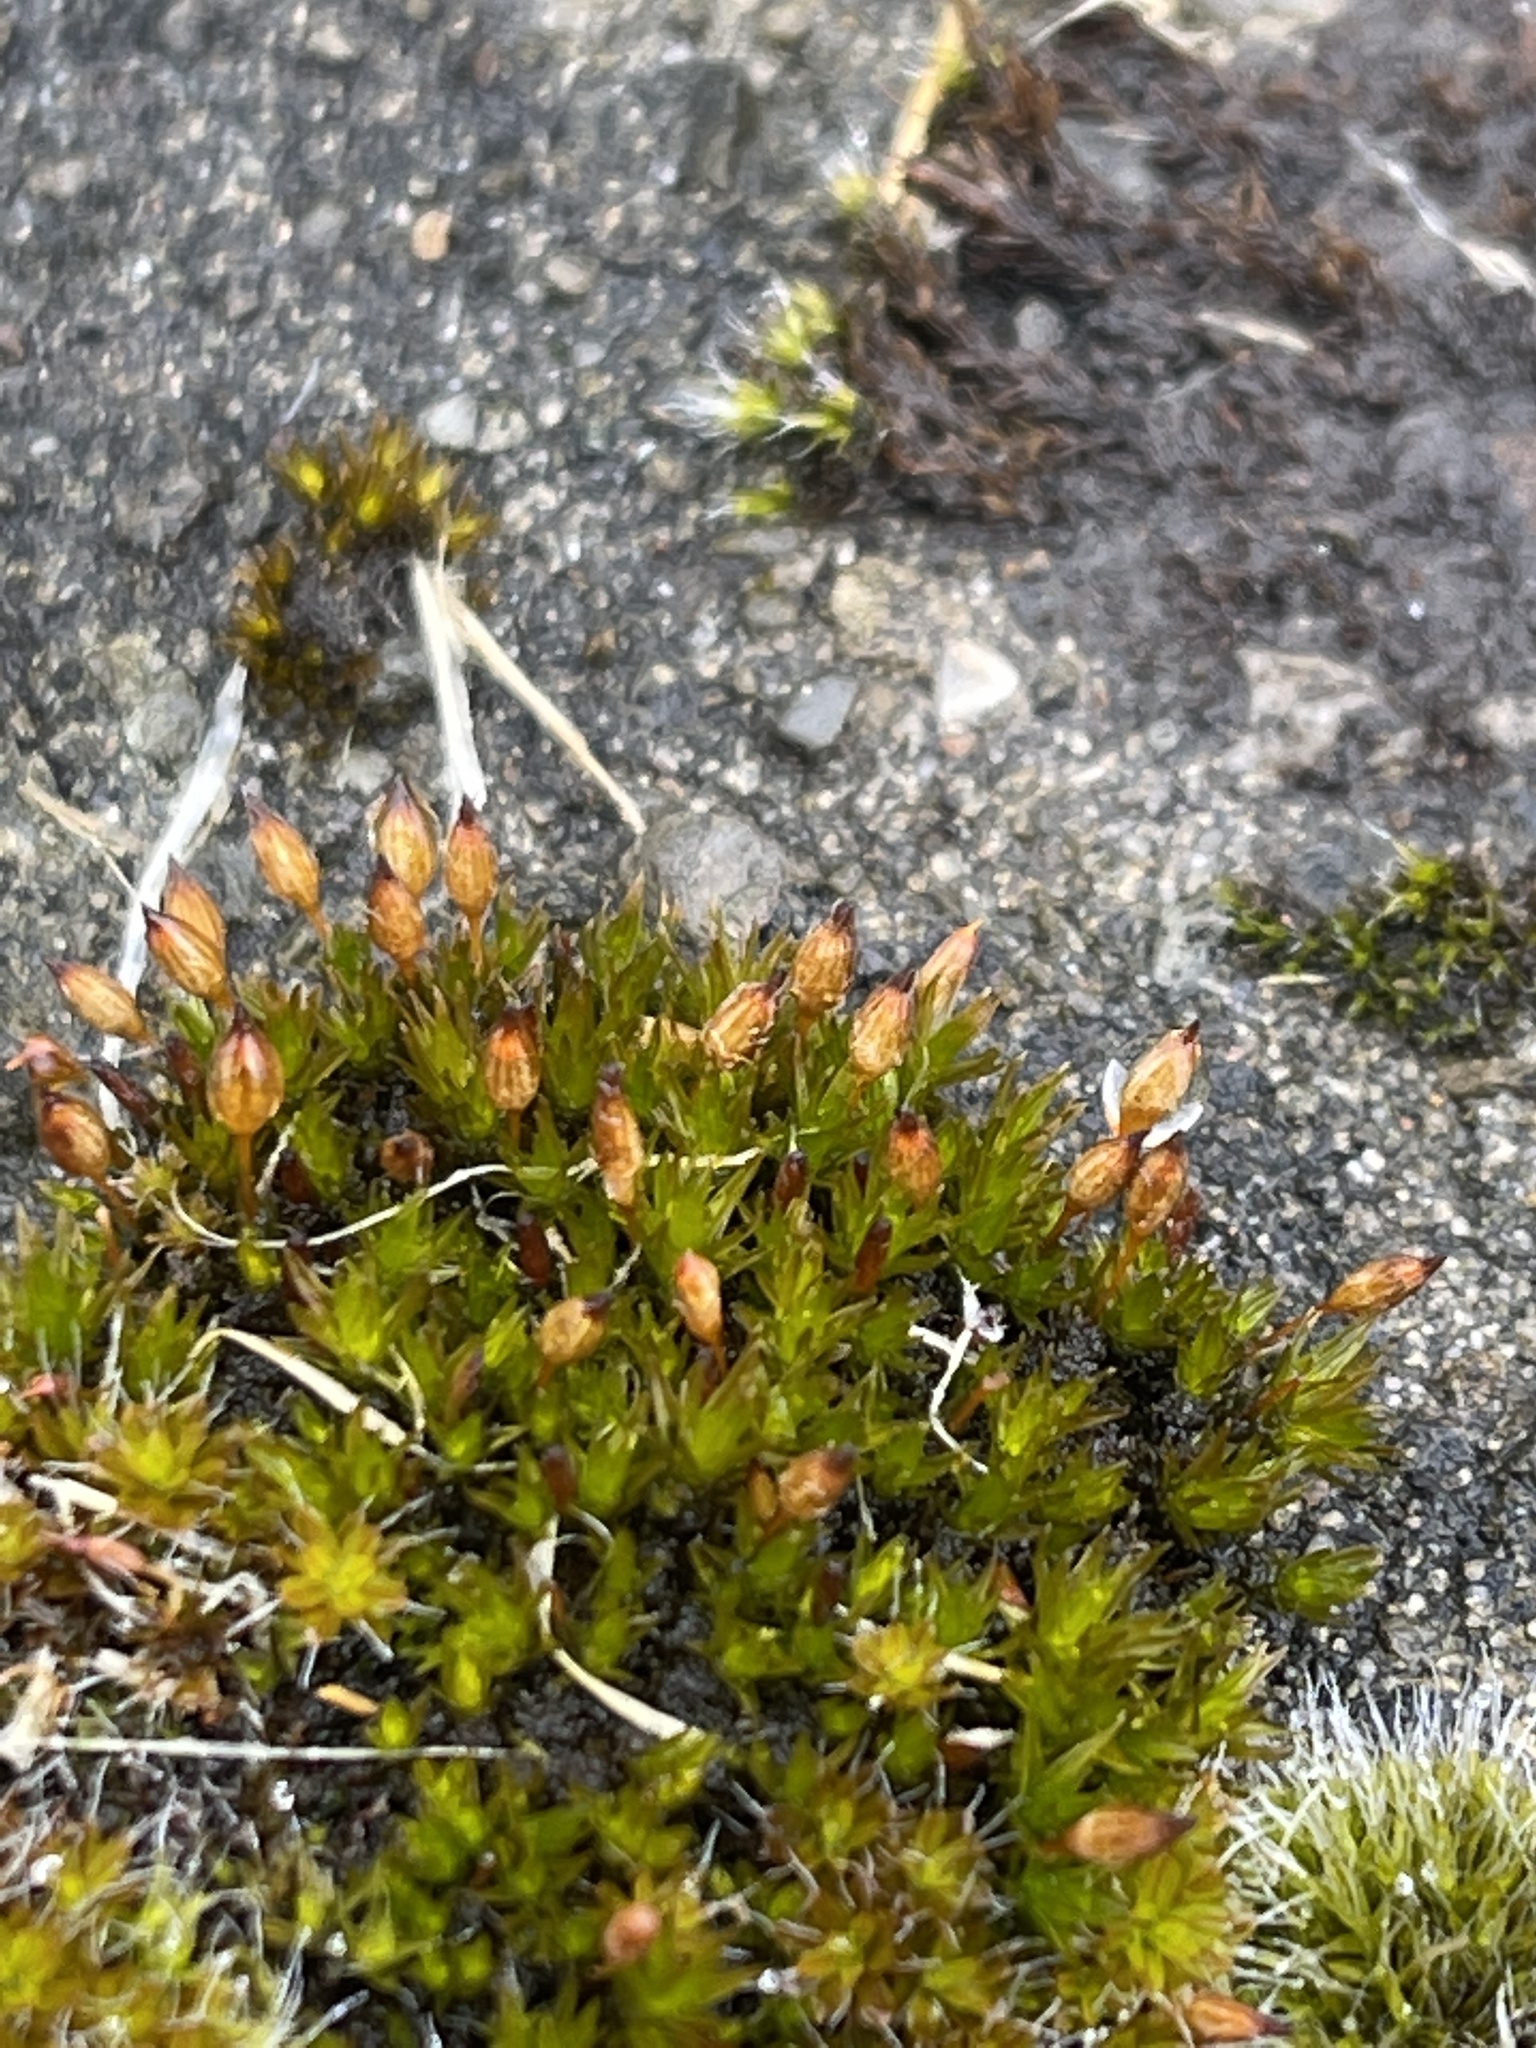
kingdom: Plantae
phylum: Bryophyta
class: Bryopsida
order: Orthotrichales
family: Orthotrichaceae
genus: Orthotrichum
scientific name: Orthotrichum anomalum
